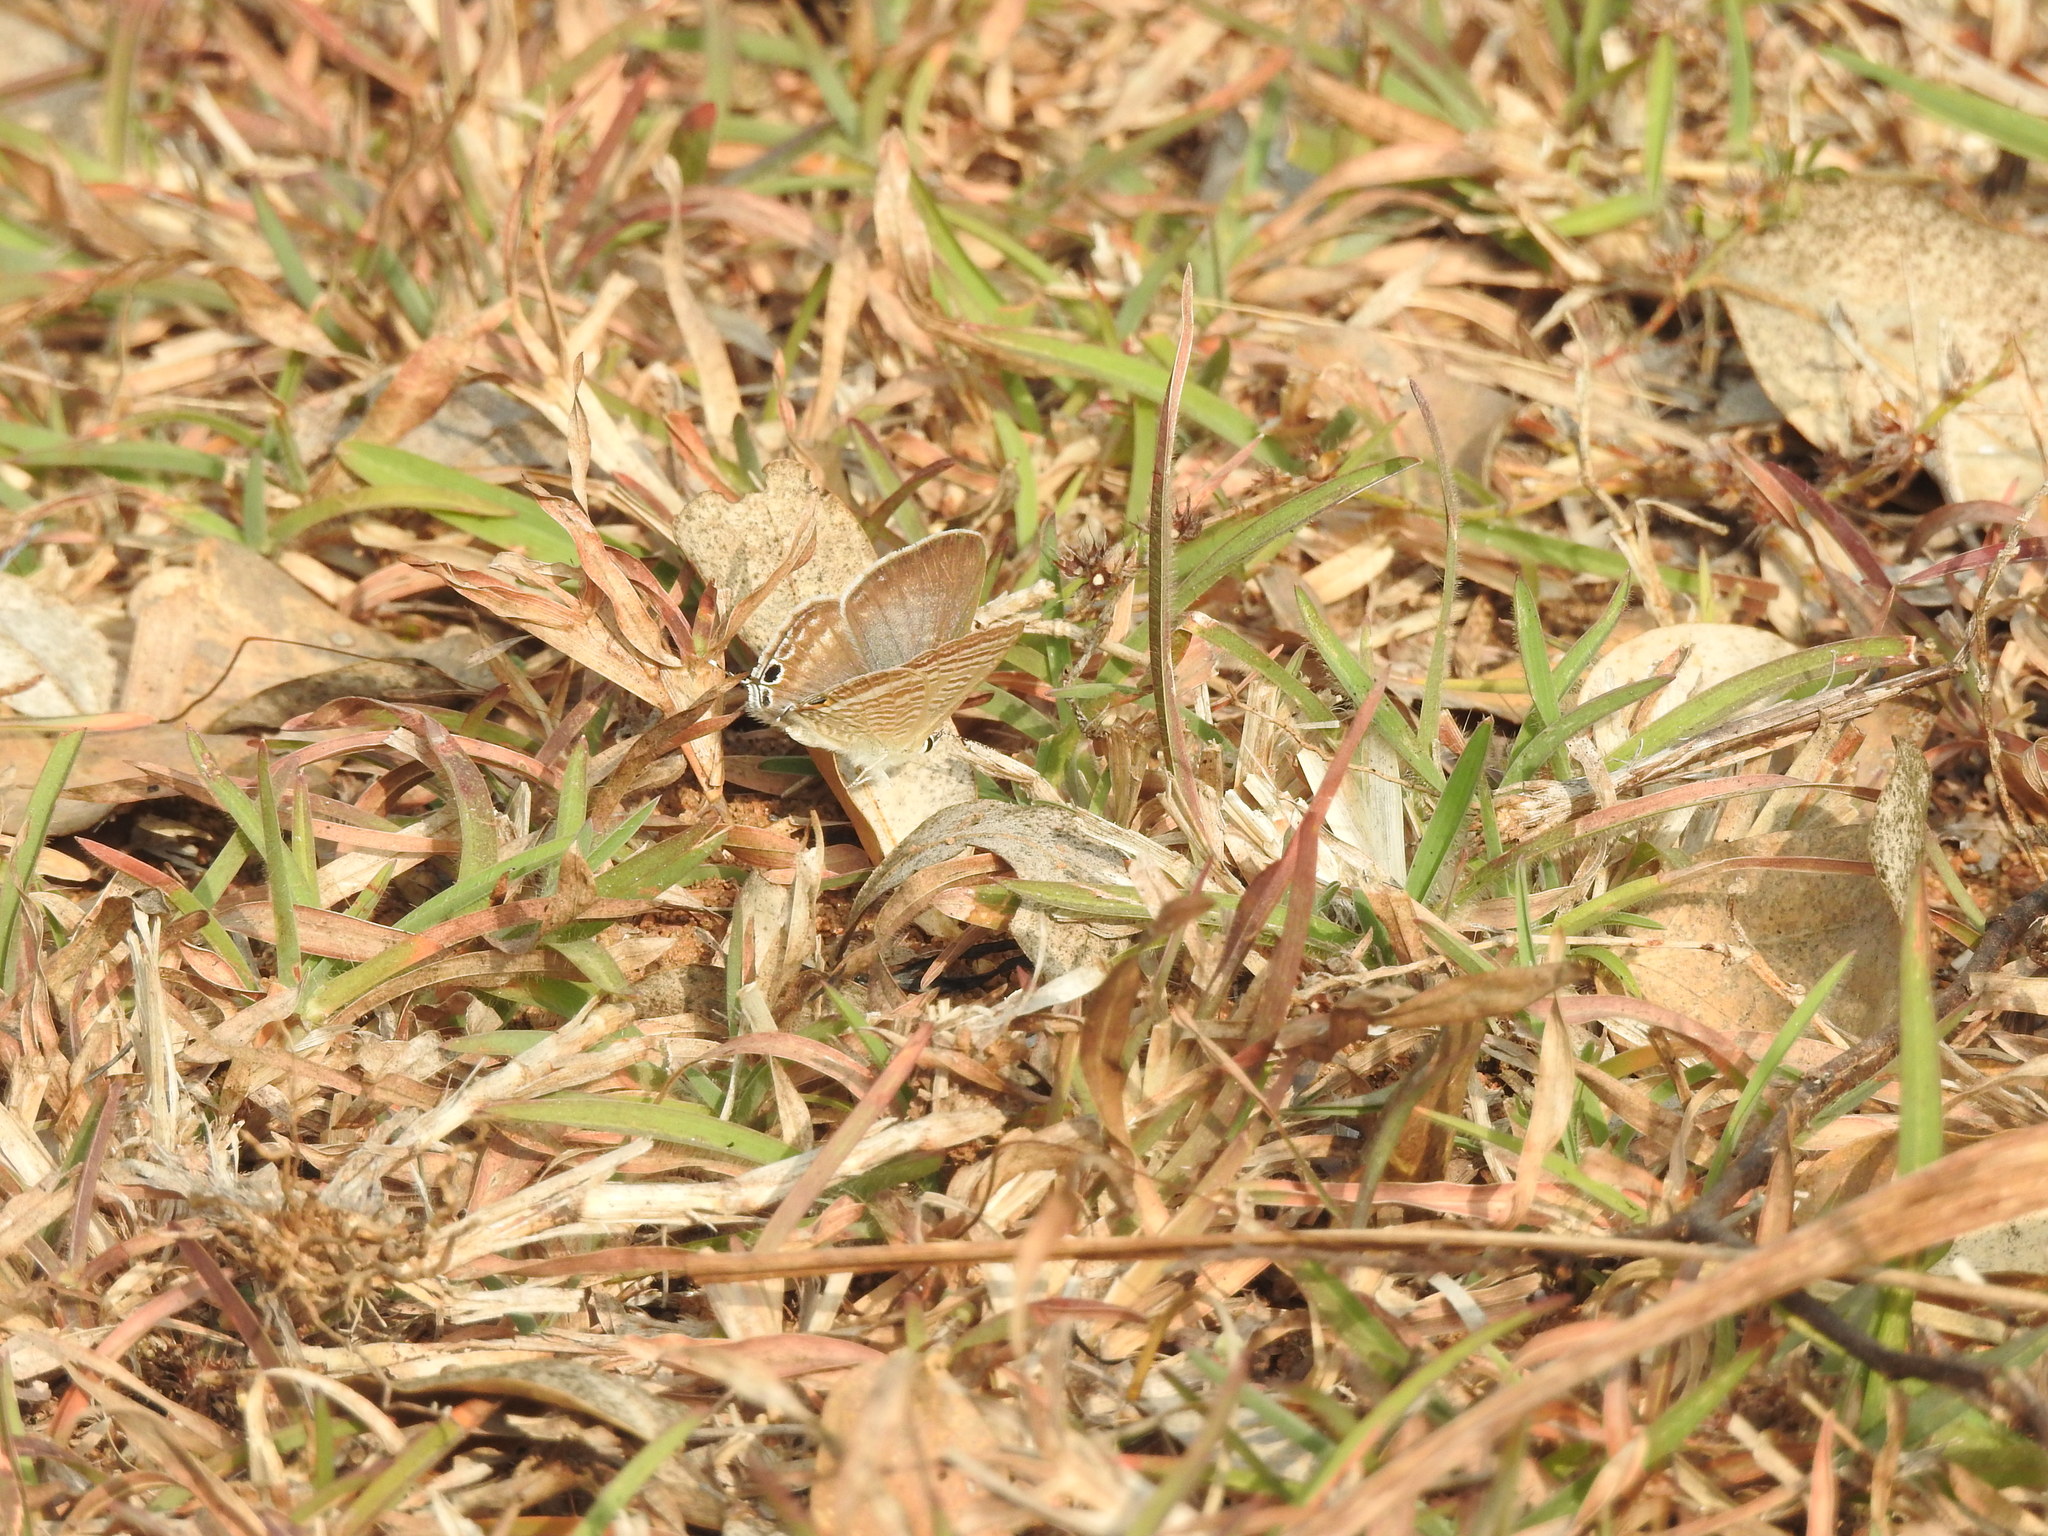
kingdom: Animalia
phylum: Arthropoda
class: Insecta
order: Lepidoptera
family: Lycaenidae
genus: Lampides
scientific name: Lampides boeticus
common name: Long-tailed blue
